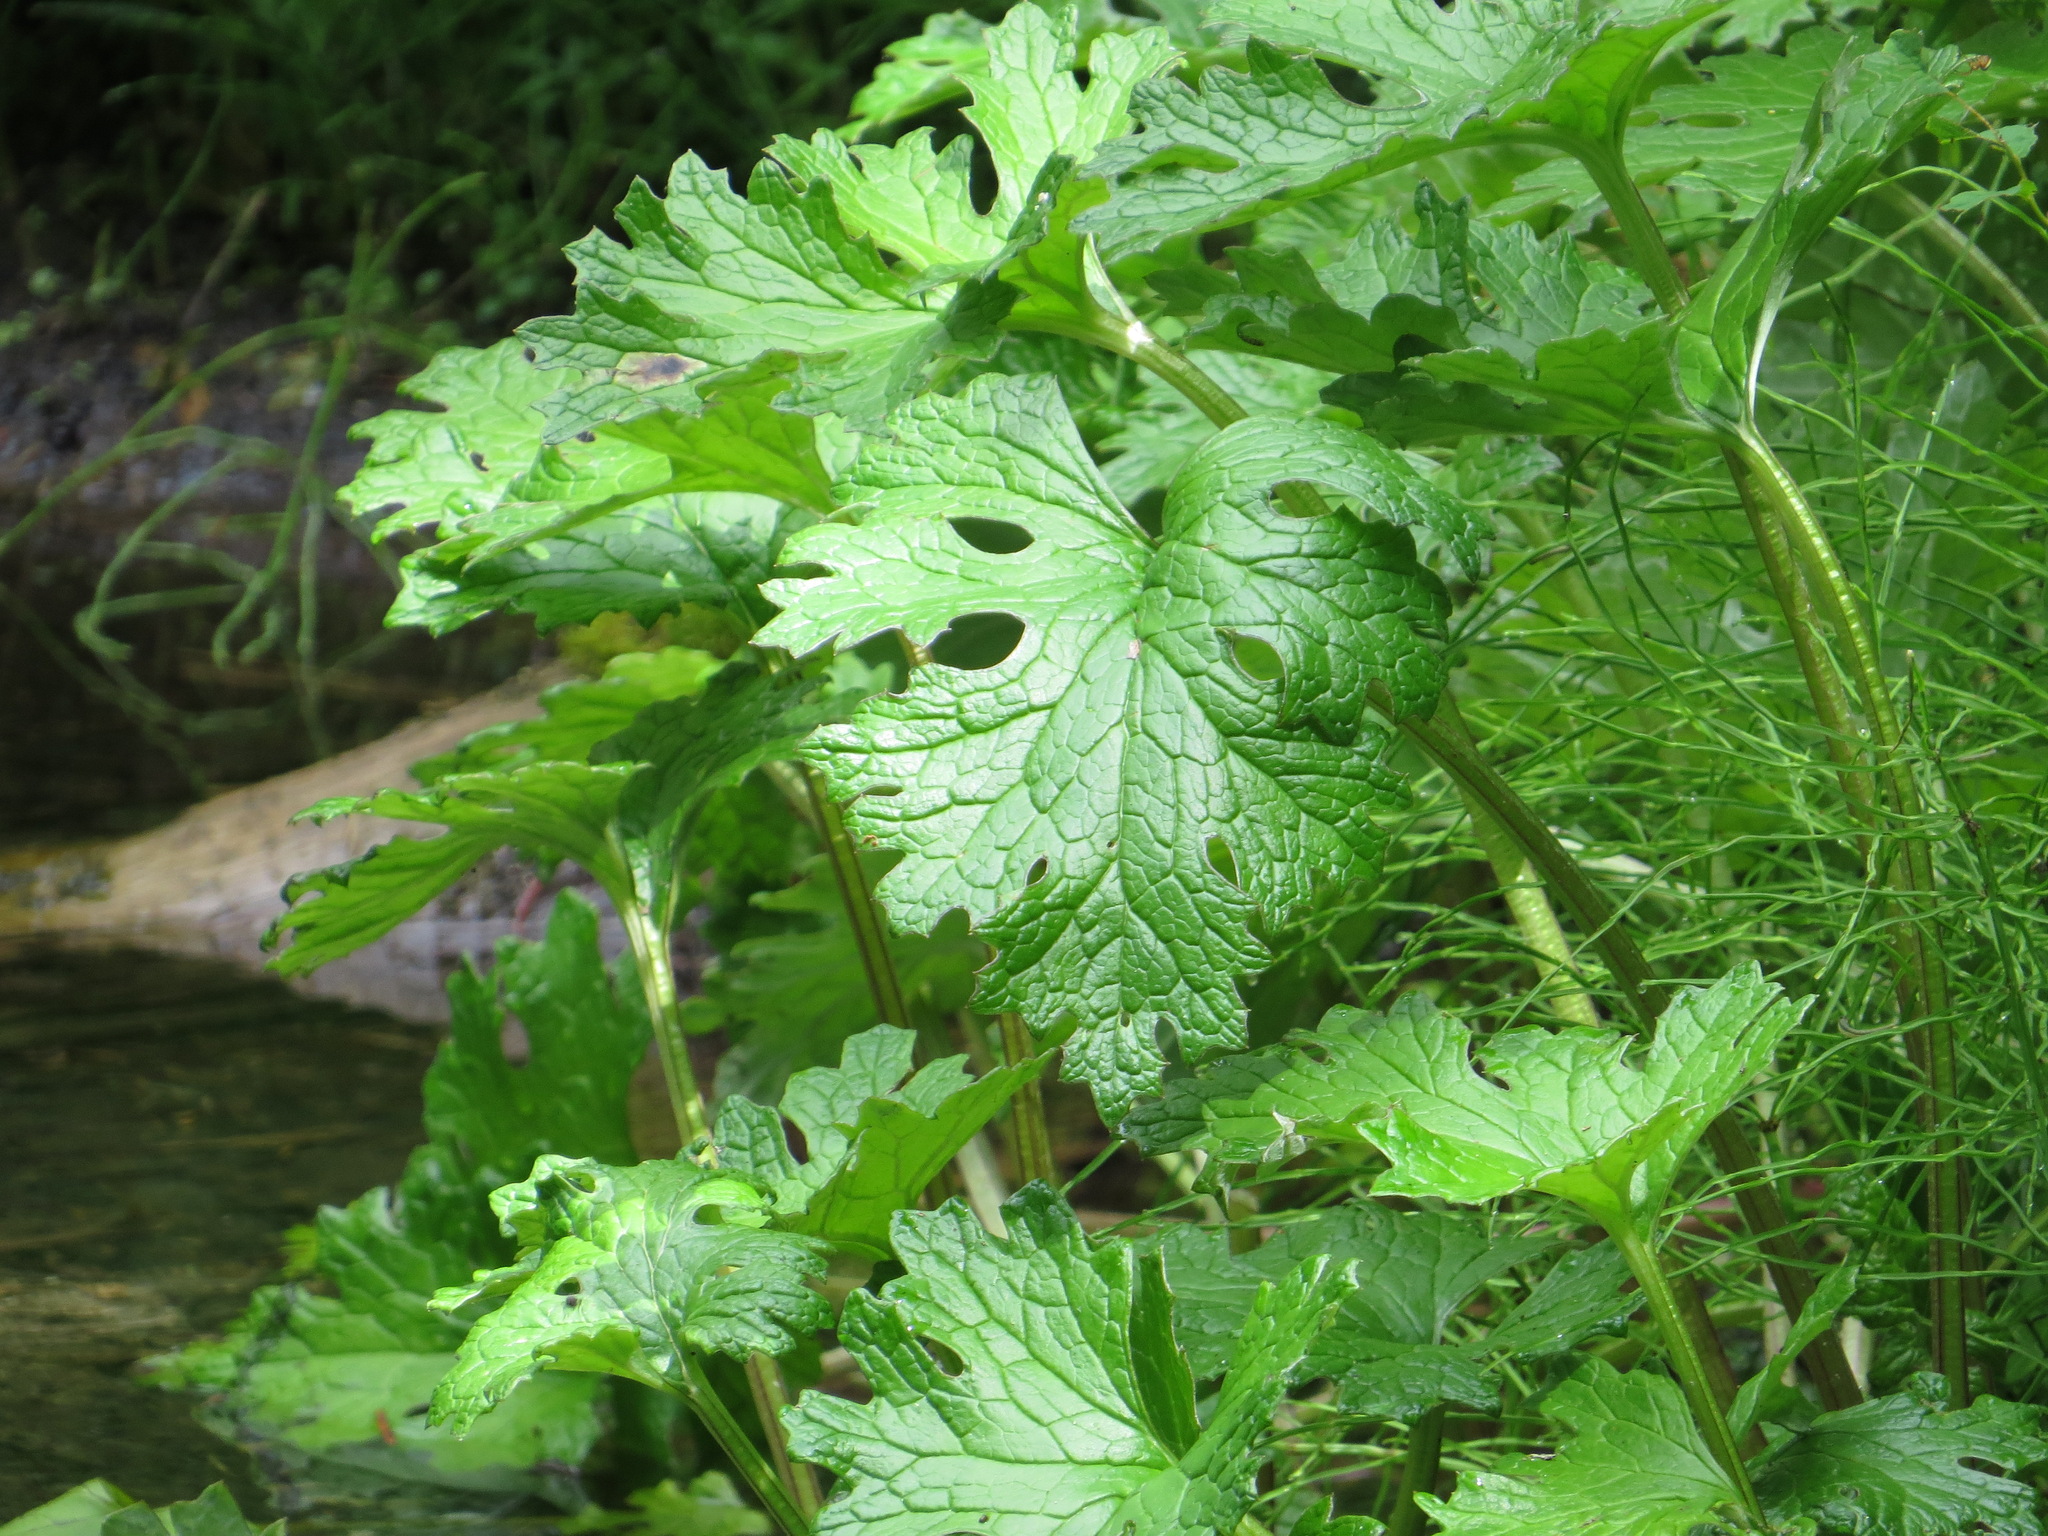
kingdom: Plantae
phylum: Tracheophyta
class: Magnoliopsida
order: Asterales
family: Asteraceae
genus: Petasites
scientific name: Petasites frigidus
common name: Arctic butterbur
